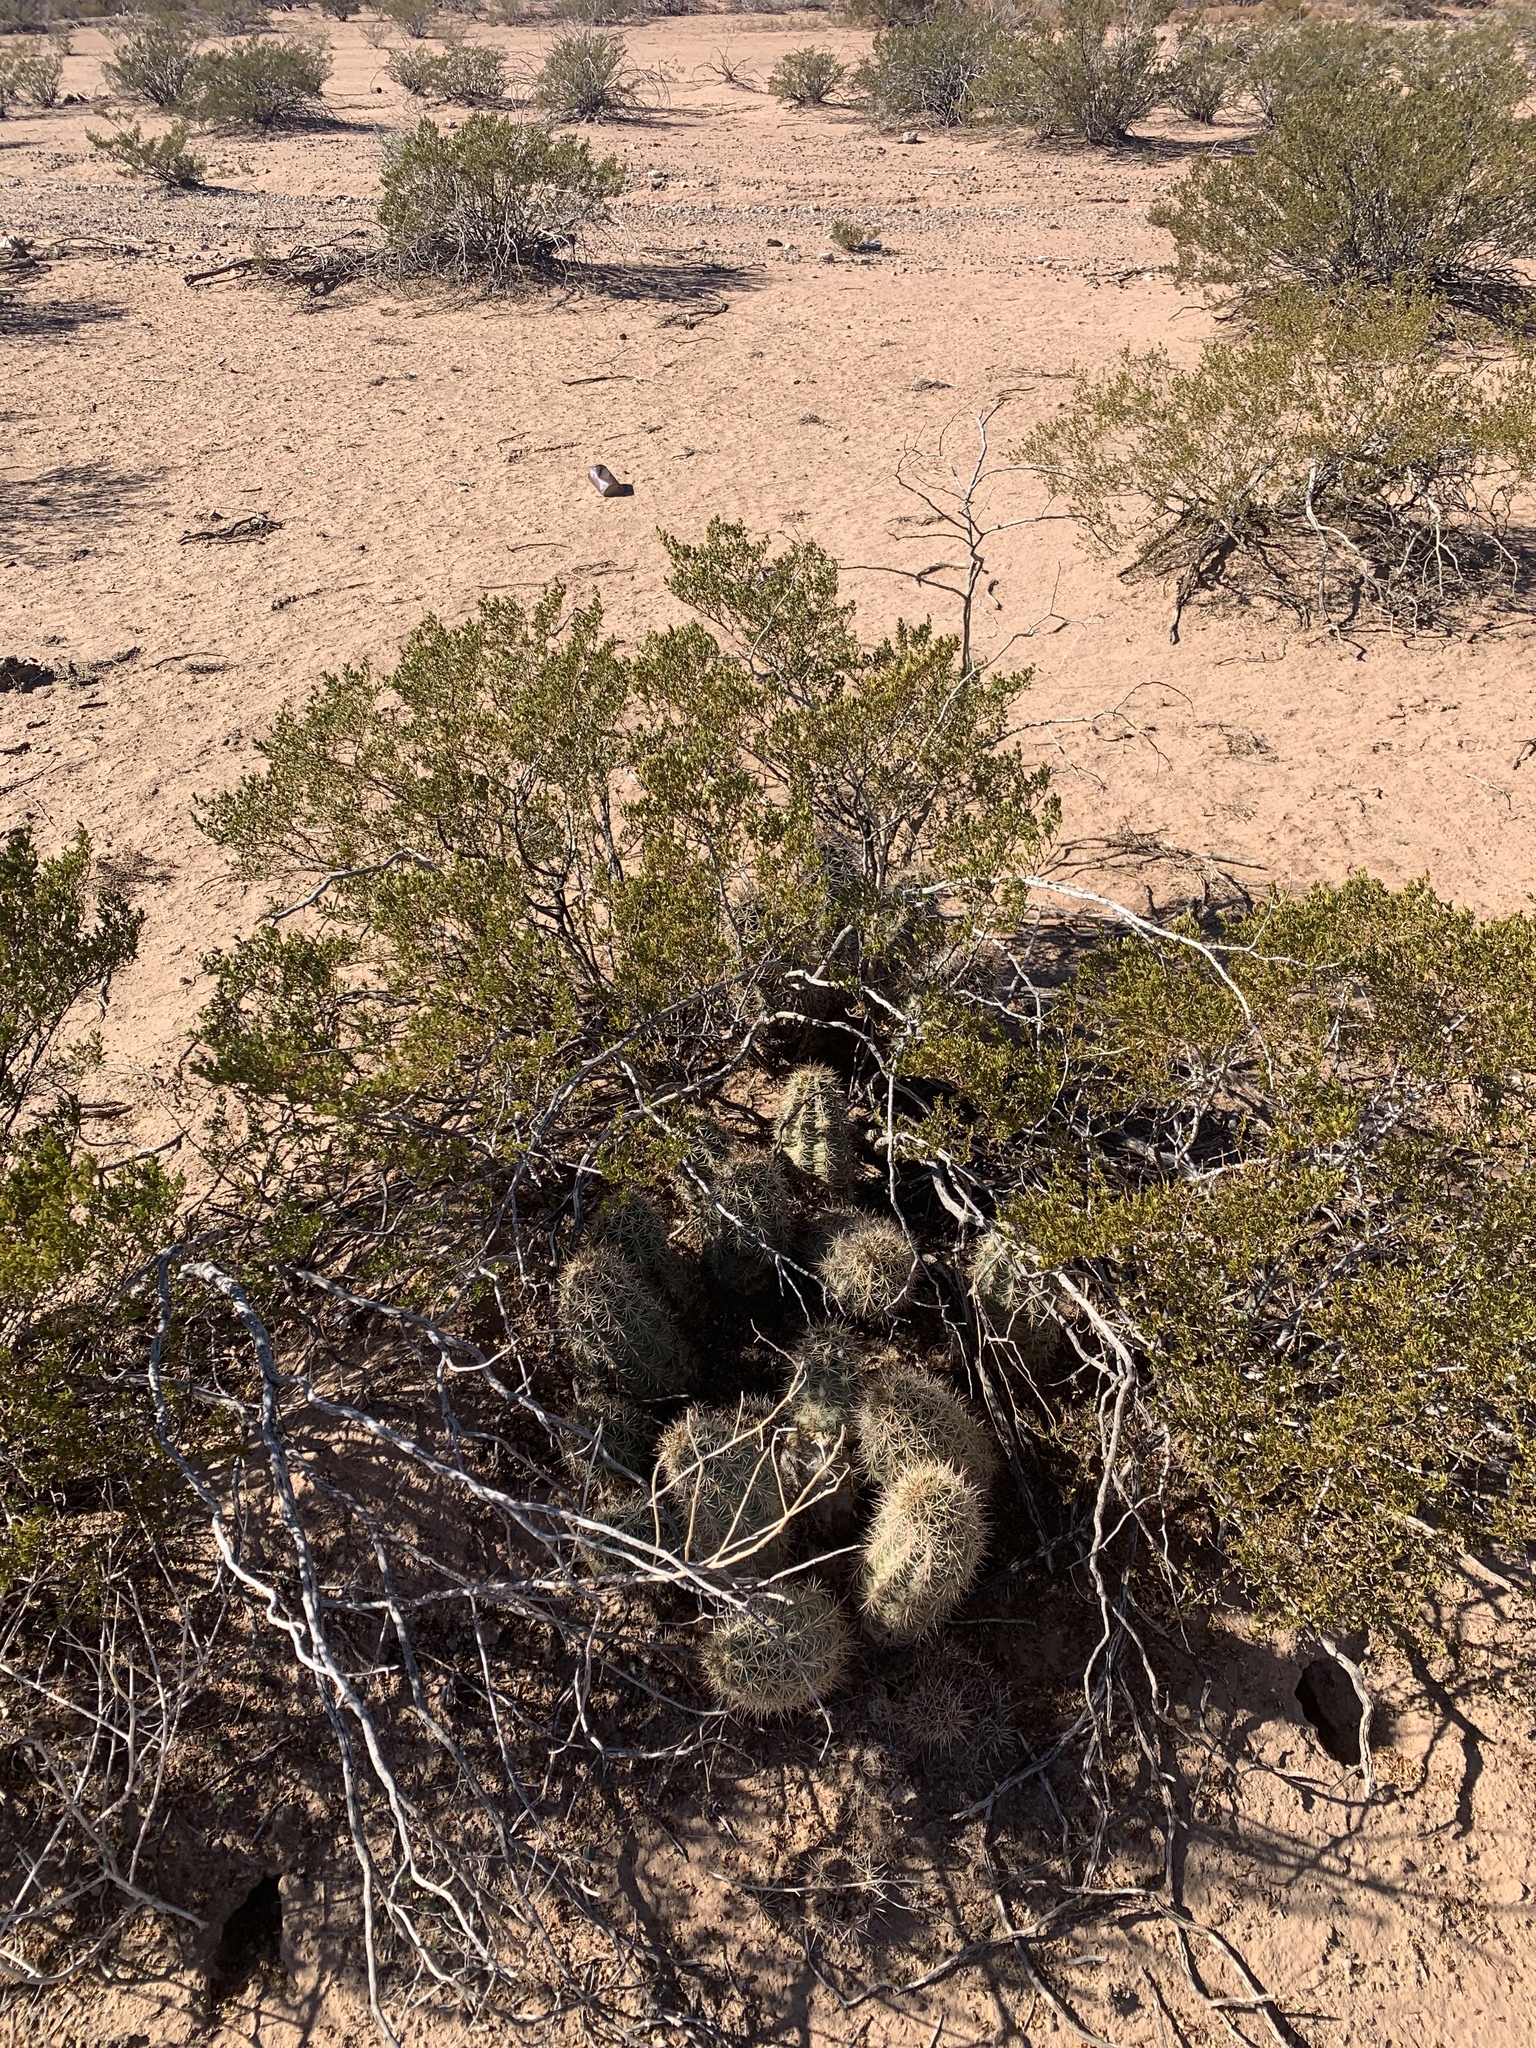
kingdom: Plantae
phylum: Tracheophyta
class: Magnoliopsida
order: Caryophyllales
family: Cactaceae
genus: Echinocereus
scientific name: Echinocereus coccineus
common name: Scarlet hedgehog cactus
